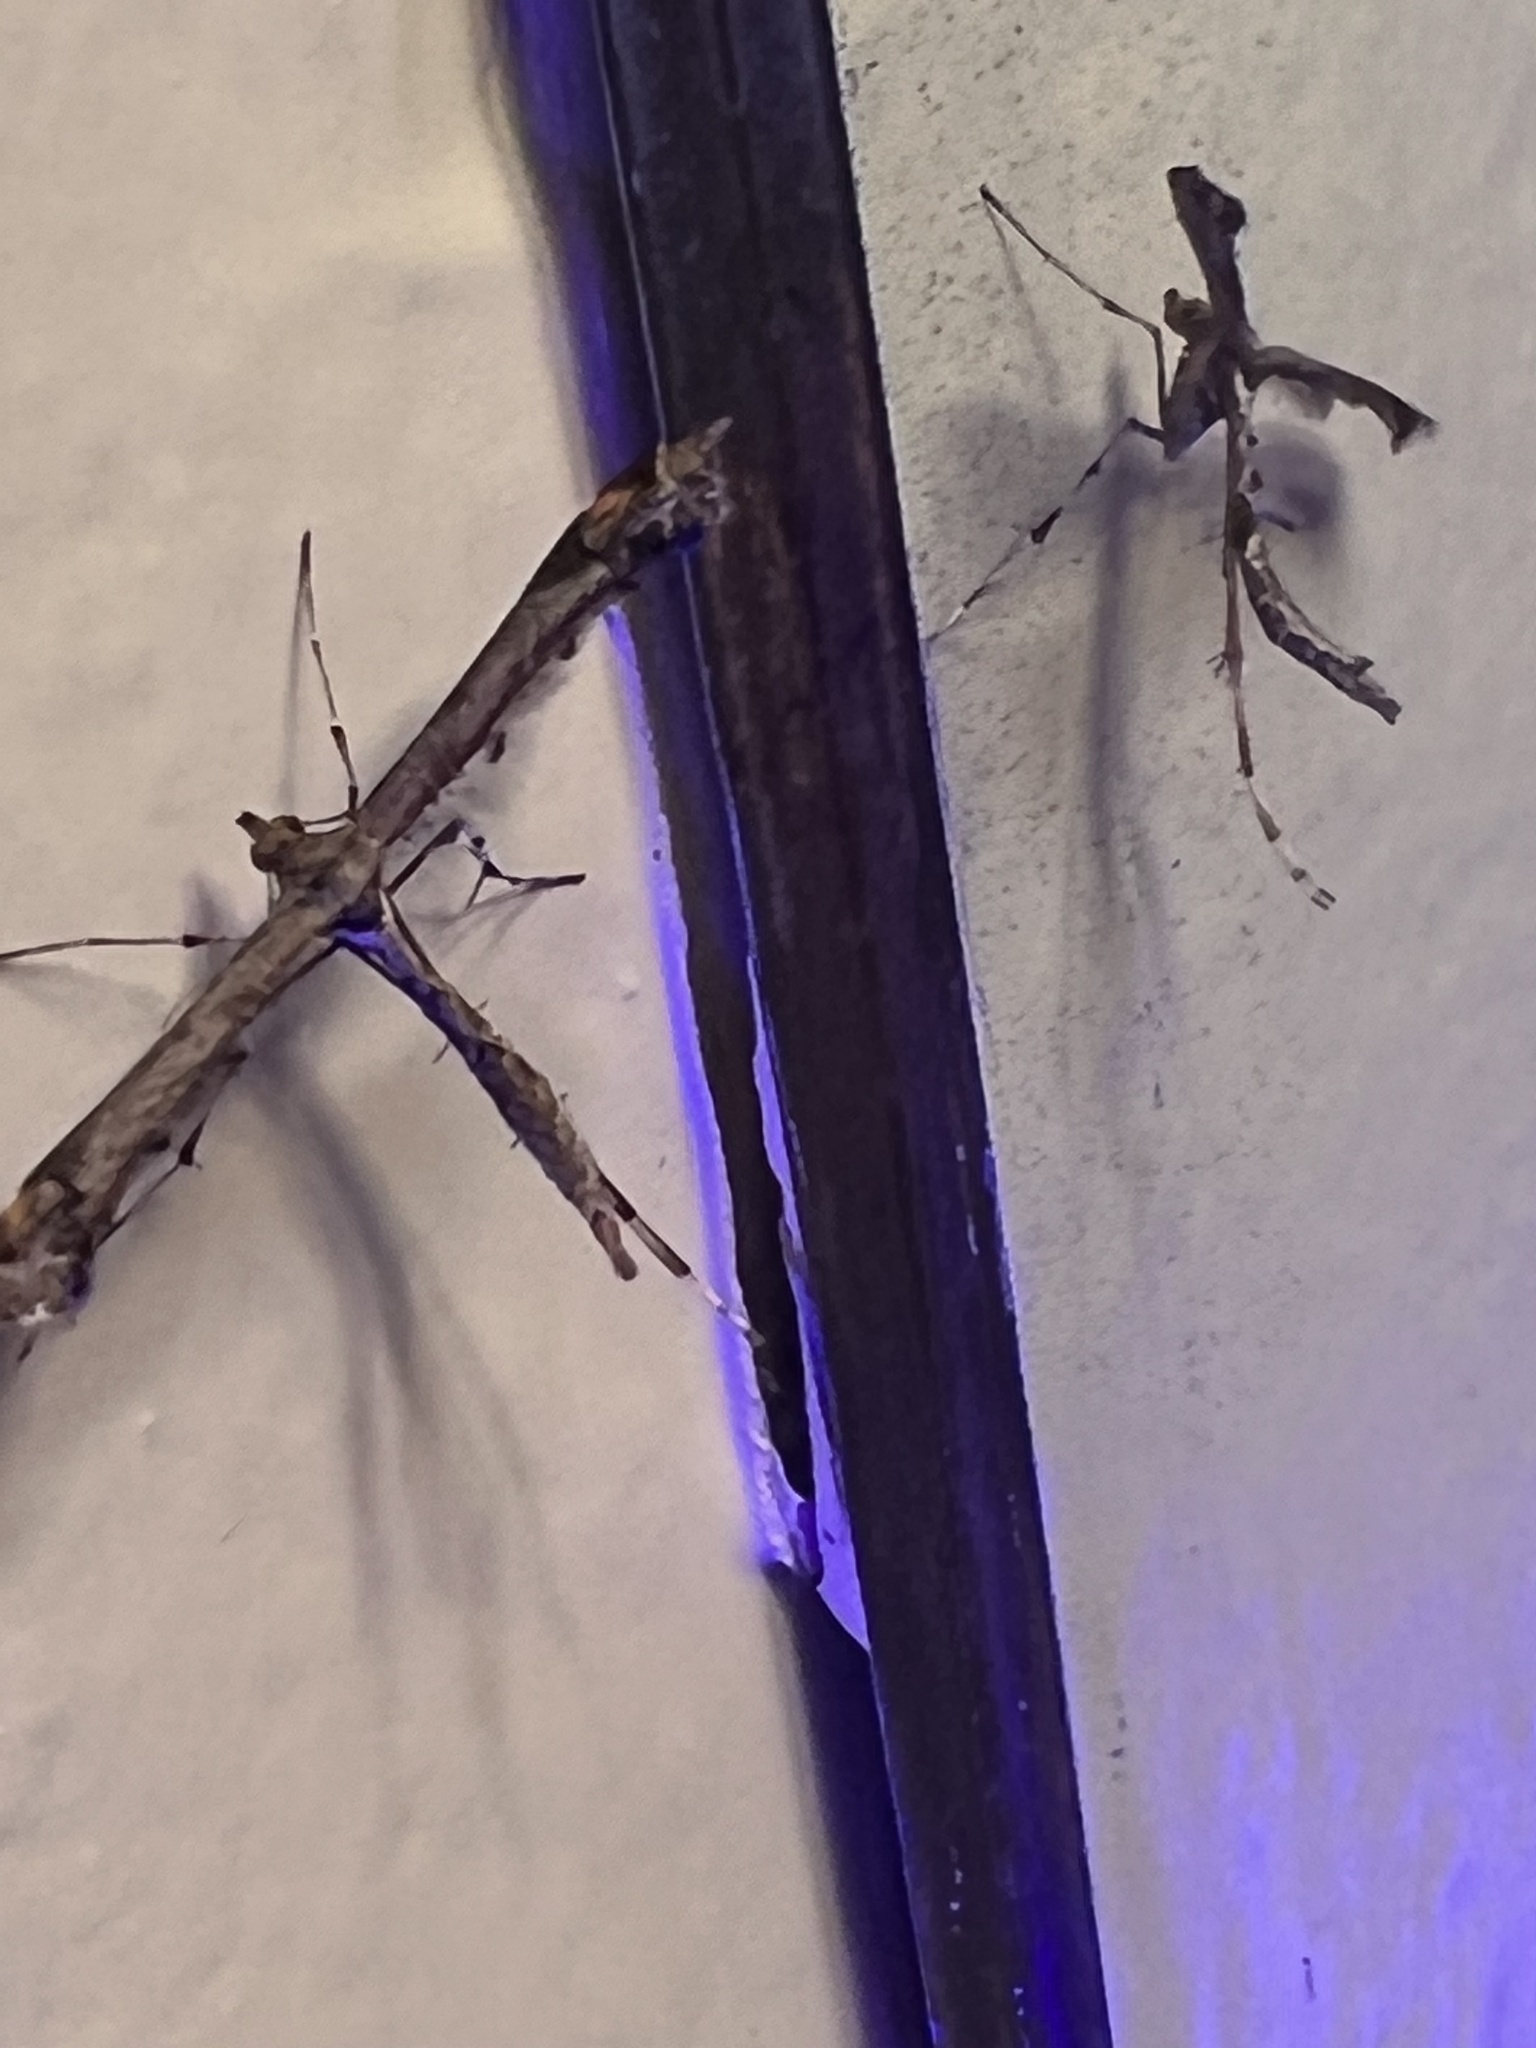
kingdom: Animalia
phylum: Arthropoda
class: Insecta
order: Lepidoptera
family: Pterophoridae
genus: Anstenoptilia
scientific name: Anstenoptilia marmarodactyla
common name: Moth
